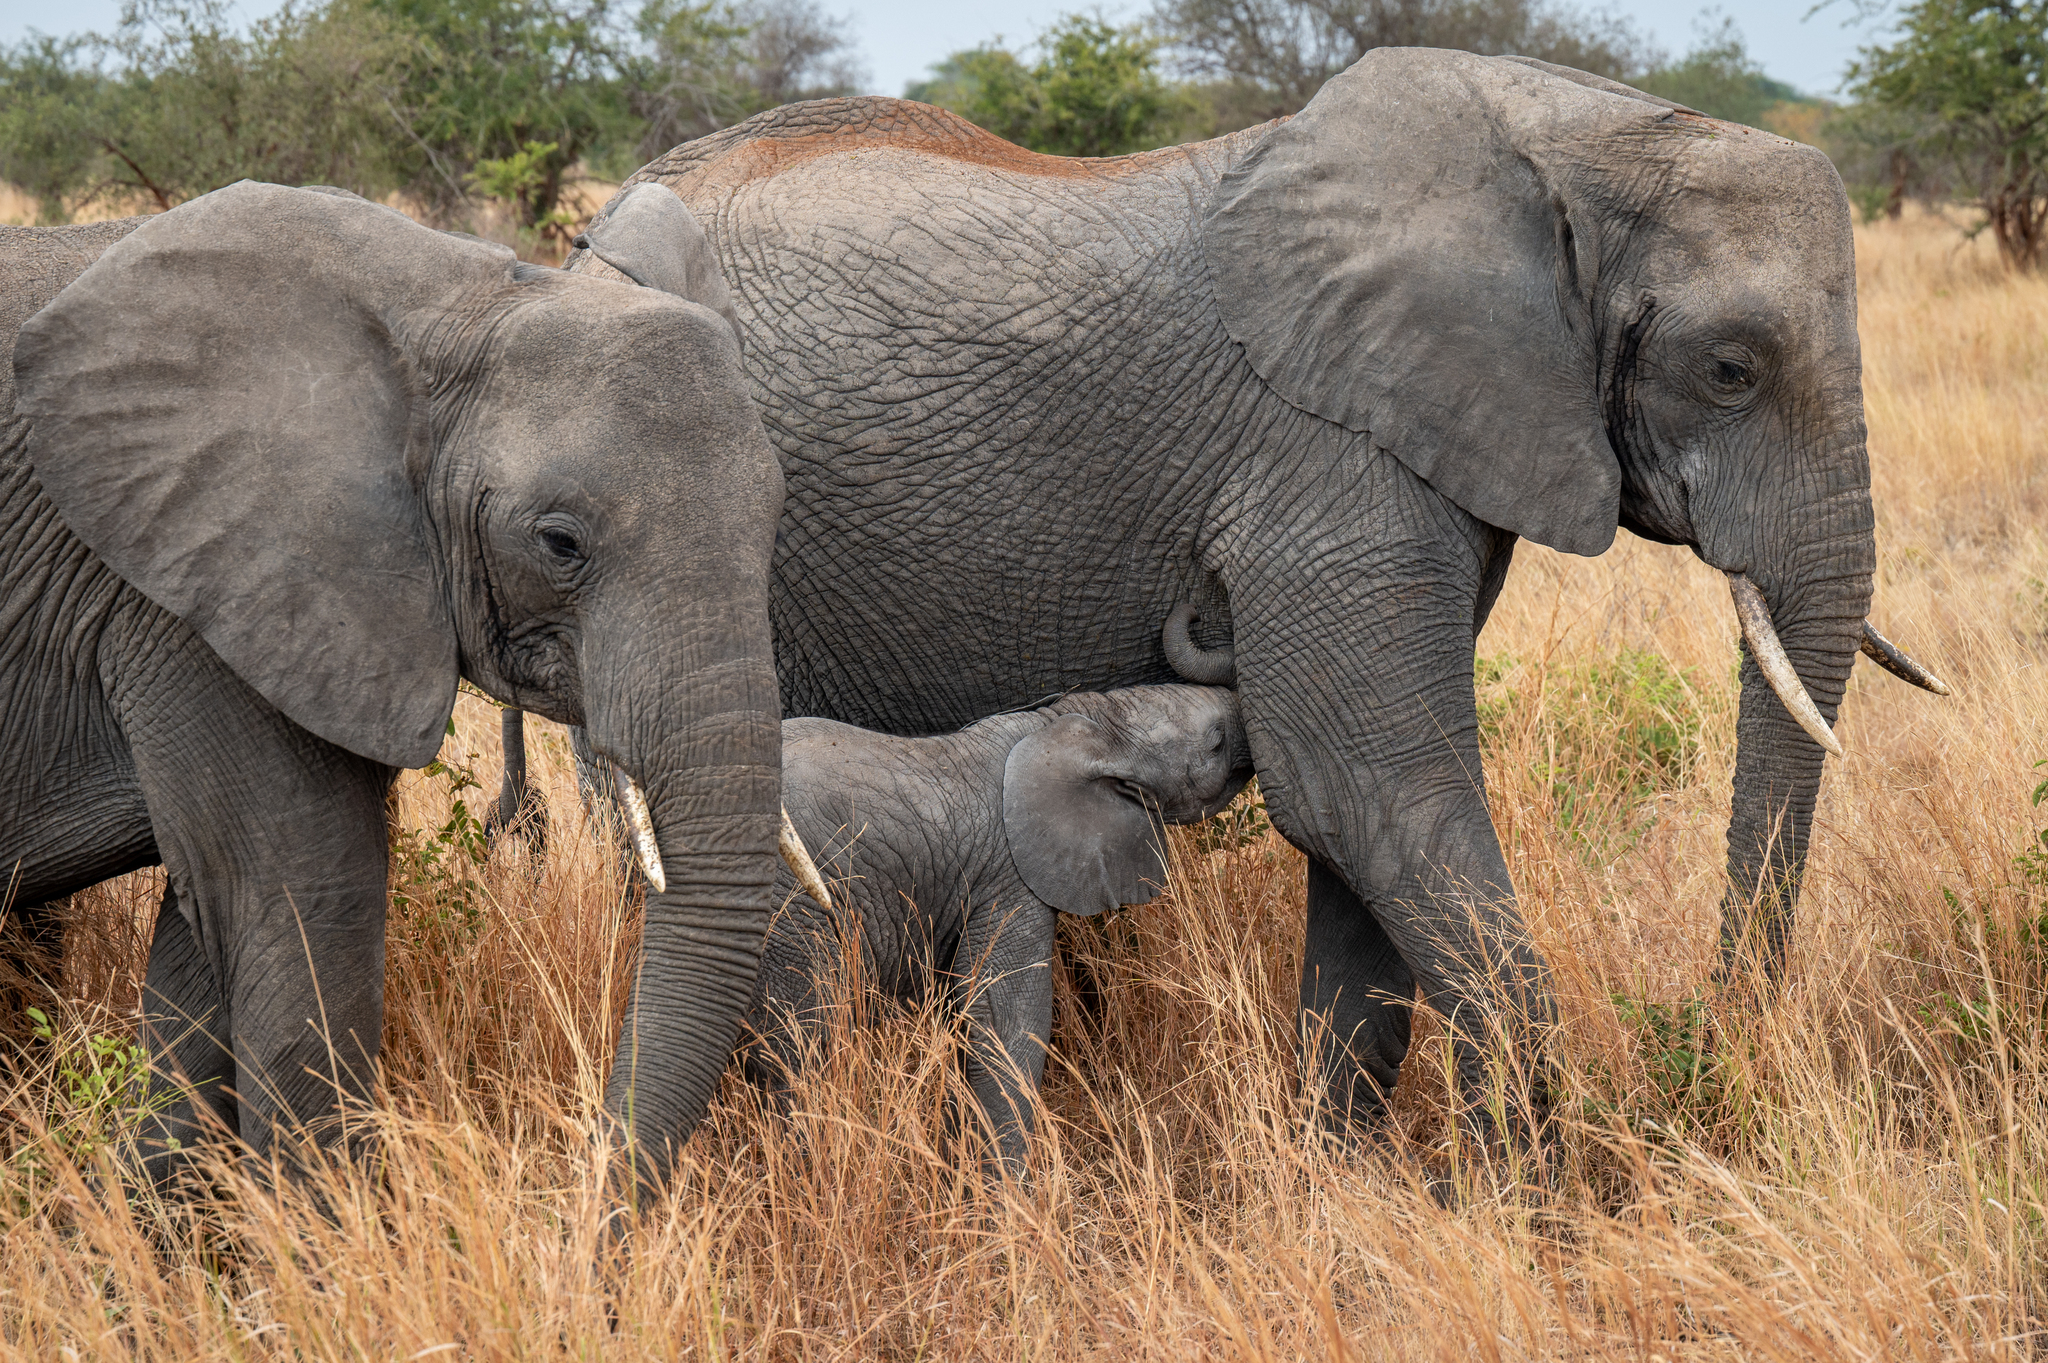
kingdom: Animalia
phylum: Chordata
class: Mammalia
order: Proboscidea
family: Elephantidae
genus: Loxodonta
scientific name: Loxodonta africana
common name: African elephant
